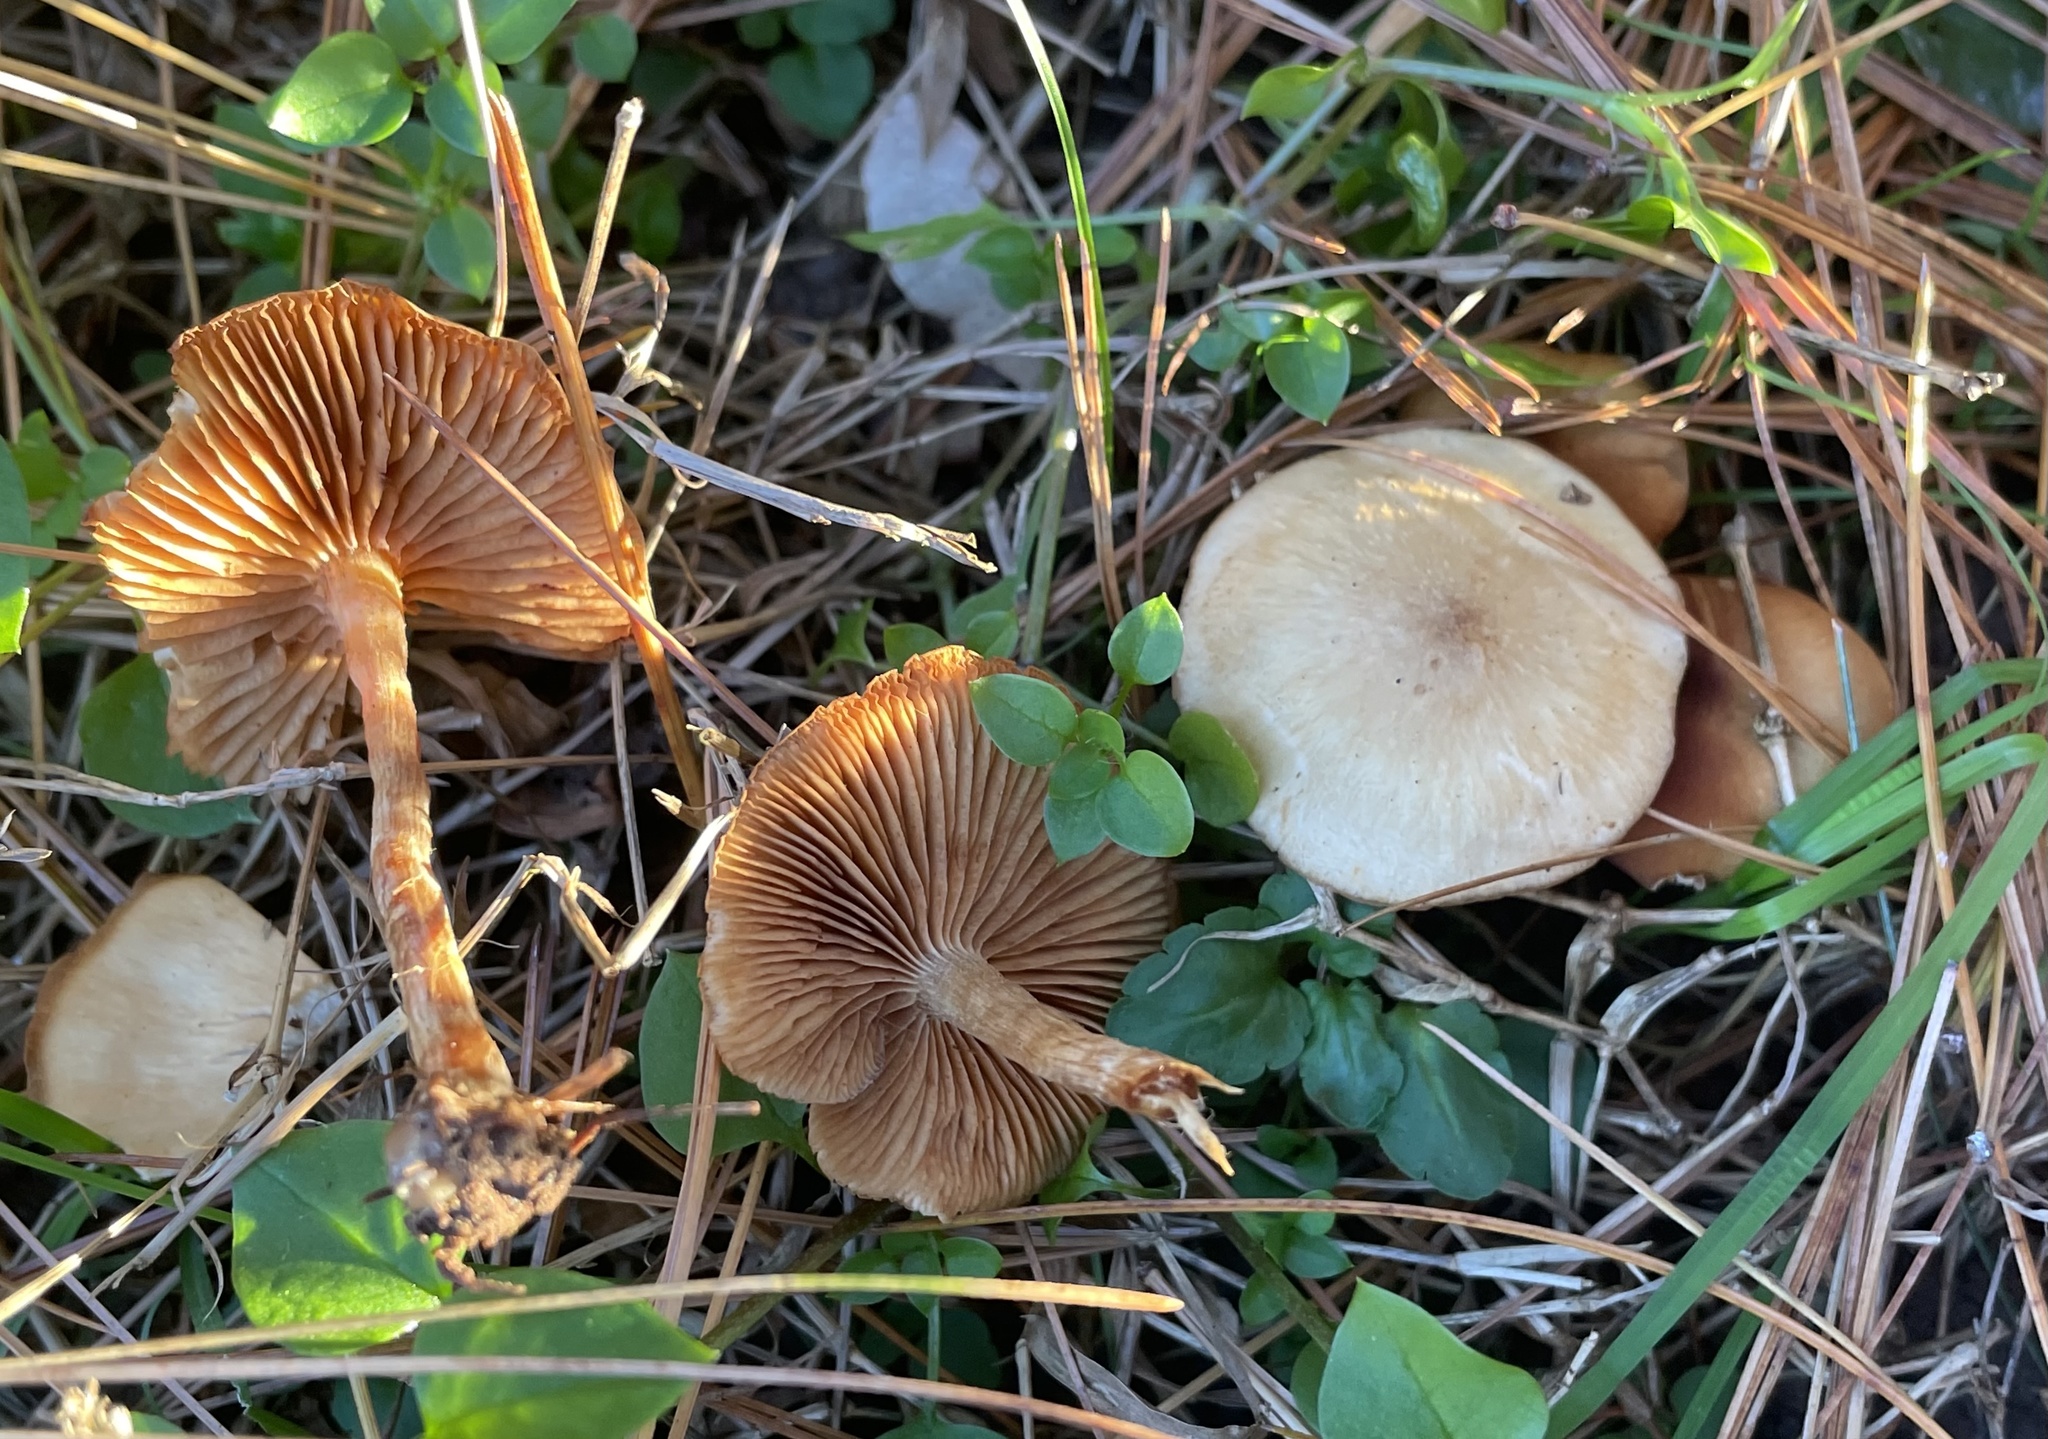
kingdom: Fungi
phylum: Basidiomycota
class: Agaricomycetes
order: Agaricales
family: Tubariaceae
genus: Tubaria
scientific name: Tubaria furfuracea
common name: Scurfy twiglet
